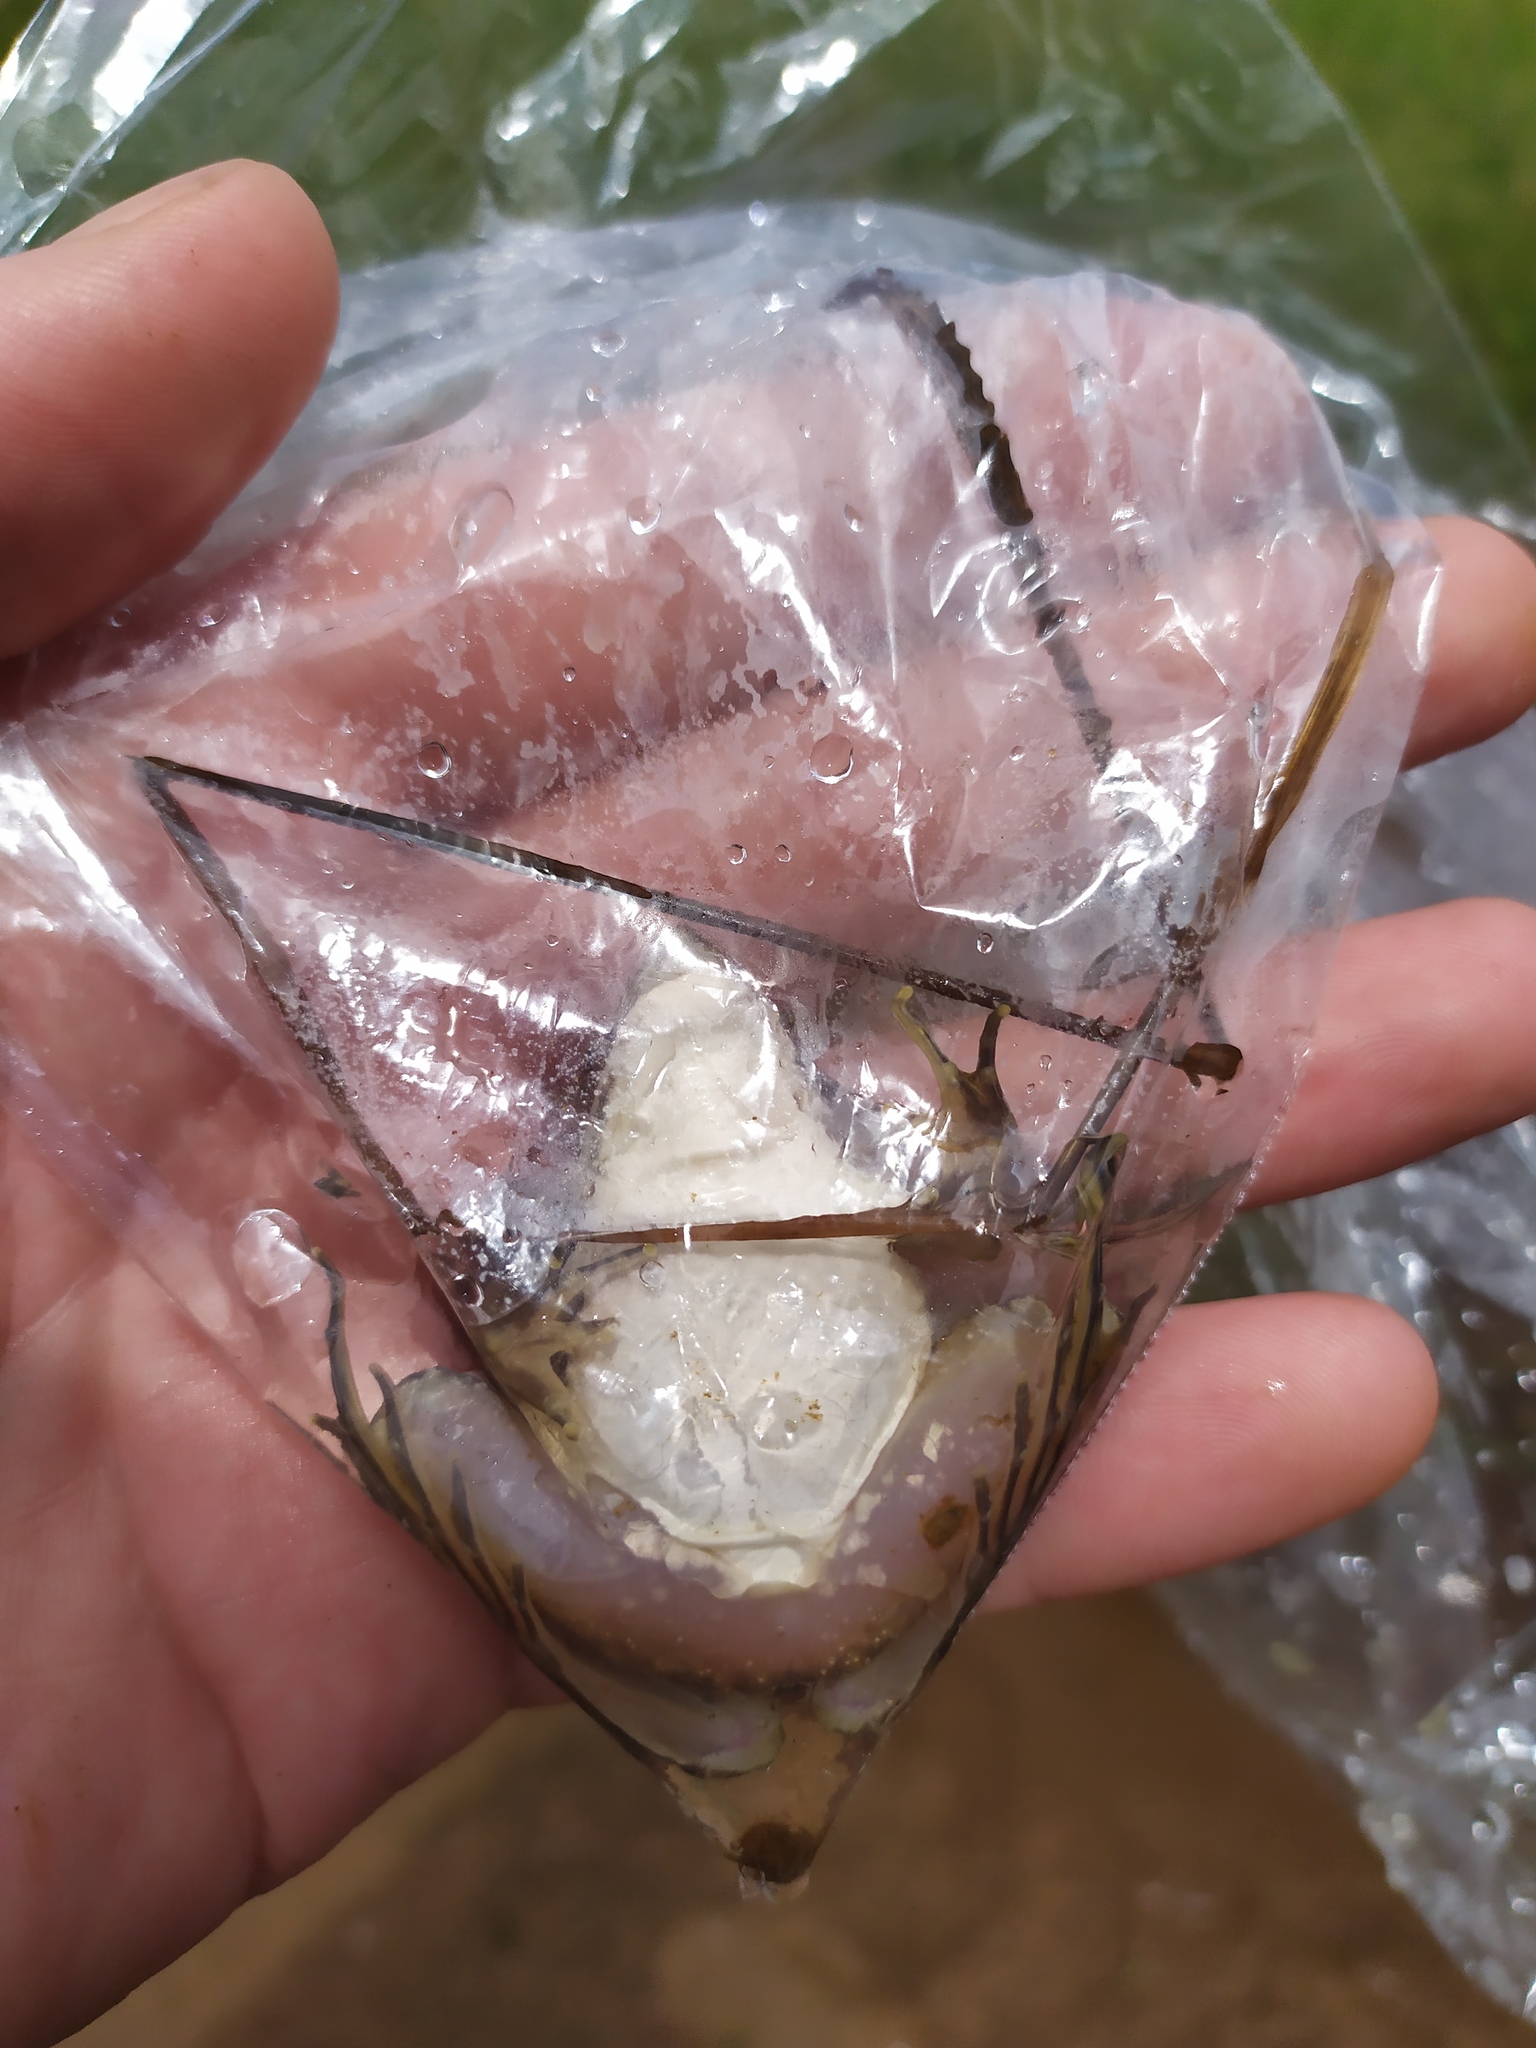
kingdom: Animalia
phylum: Chordata
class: Amphibia
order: Anura
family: Pyxicephalidae
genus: Amietia
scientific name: Amietia delalandii
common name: Delalande's river frog
